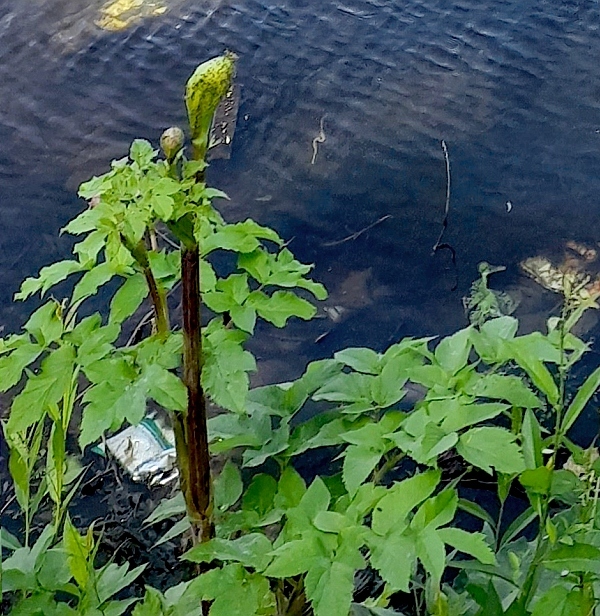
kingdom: Plantae
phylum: Tracheophyta
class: Magnoliopsida
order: Apiales
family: Apiaceae
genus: Angelica
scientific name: Angelica archangelica
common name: Garden angelica
